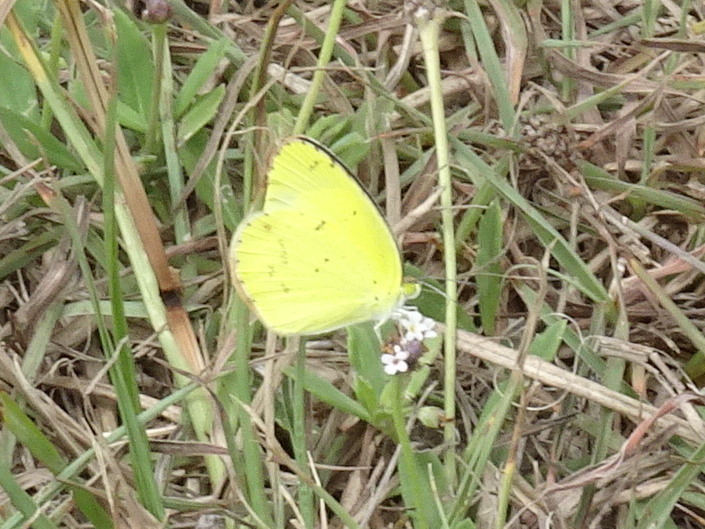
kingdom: Animalia
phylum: Arthropoda
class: Insecta
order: Lepidoptera
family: Pieridae
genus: Pyrisitia
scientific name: Pyrisitia lisa
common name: Little yellow
